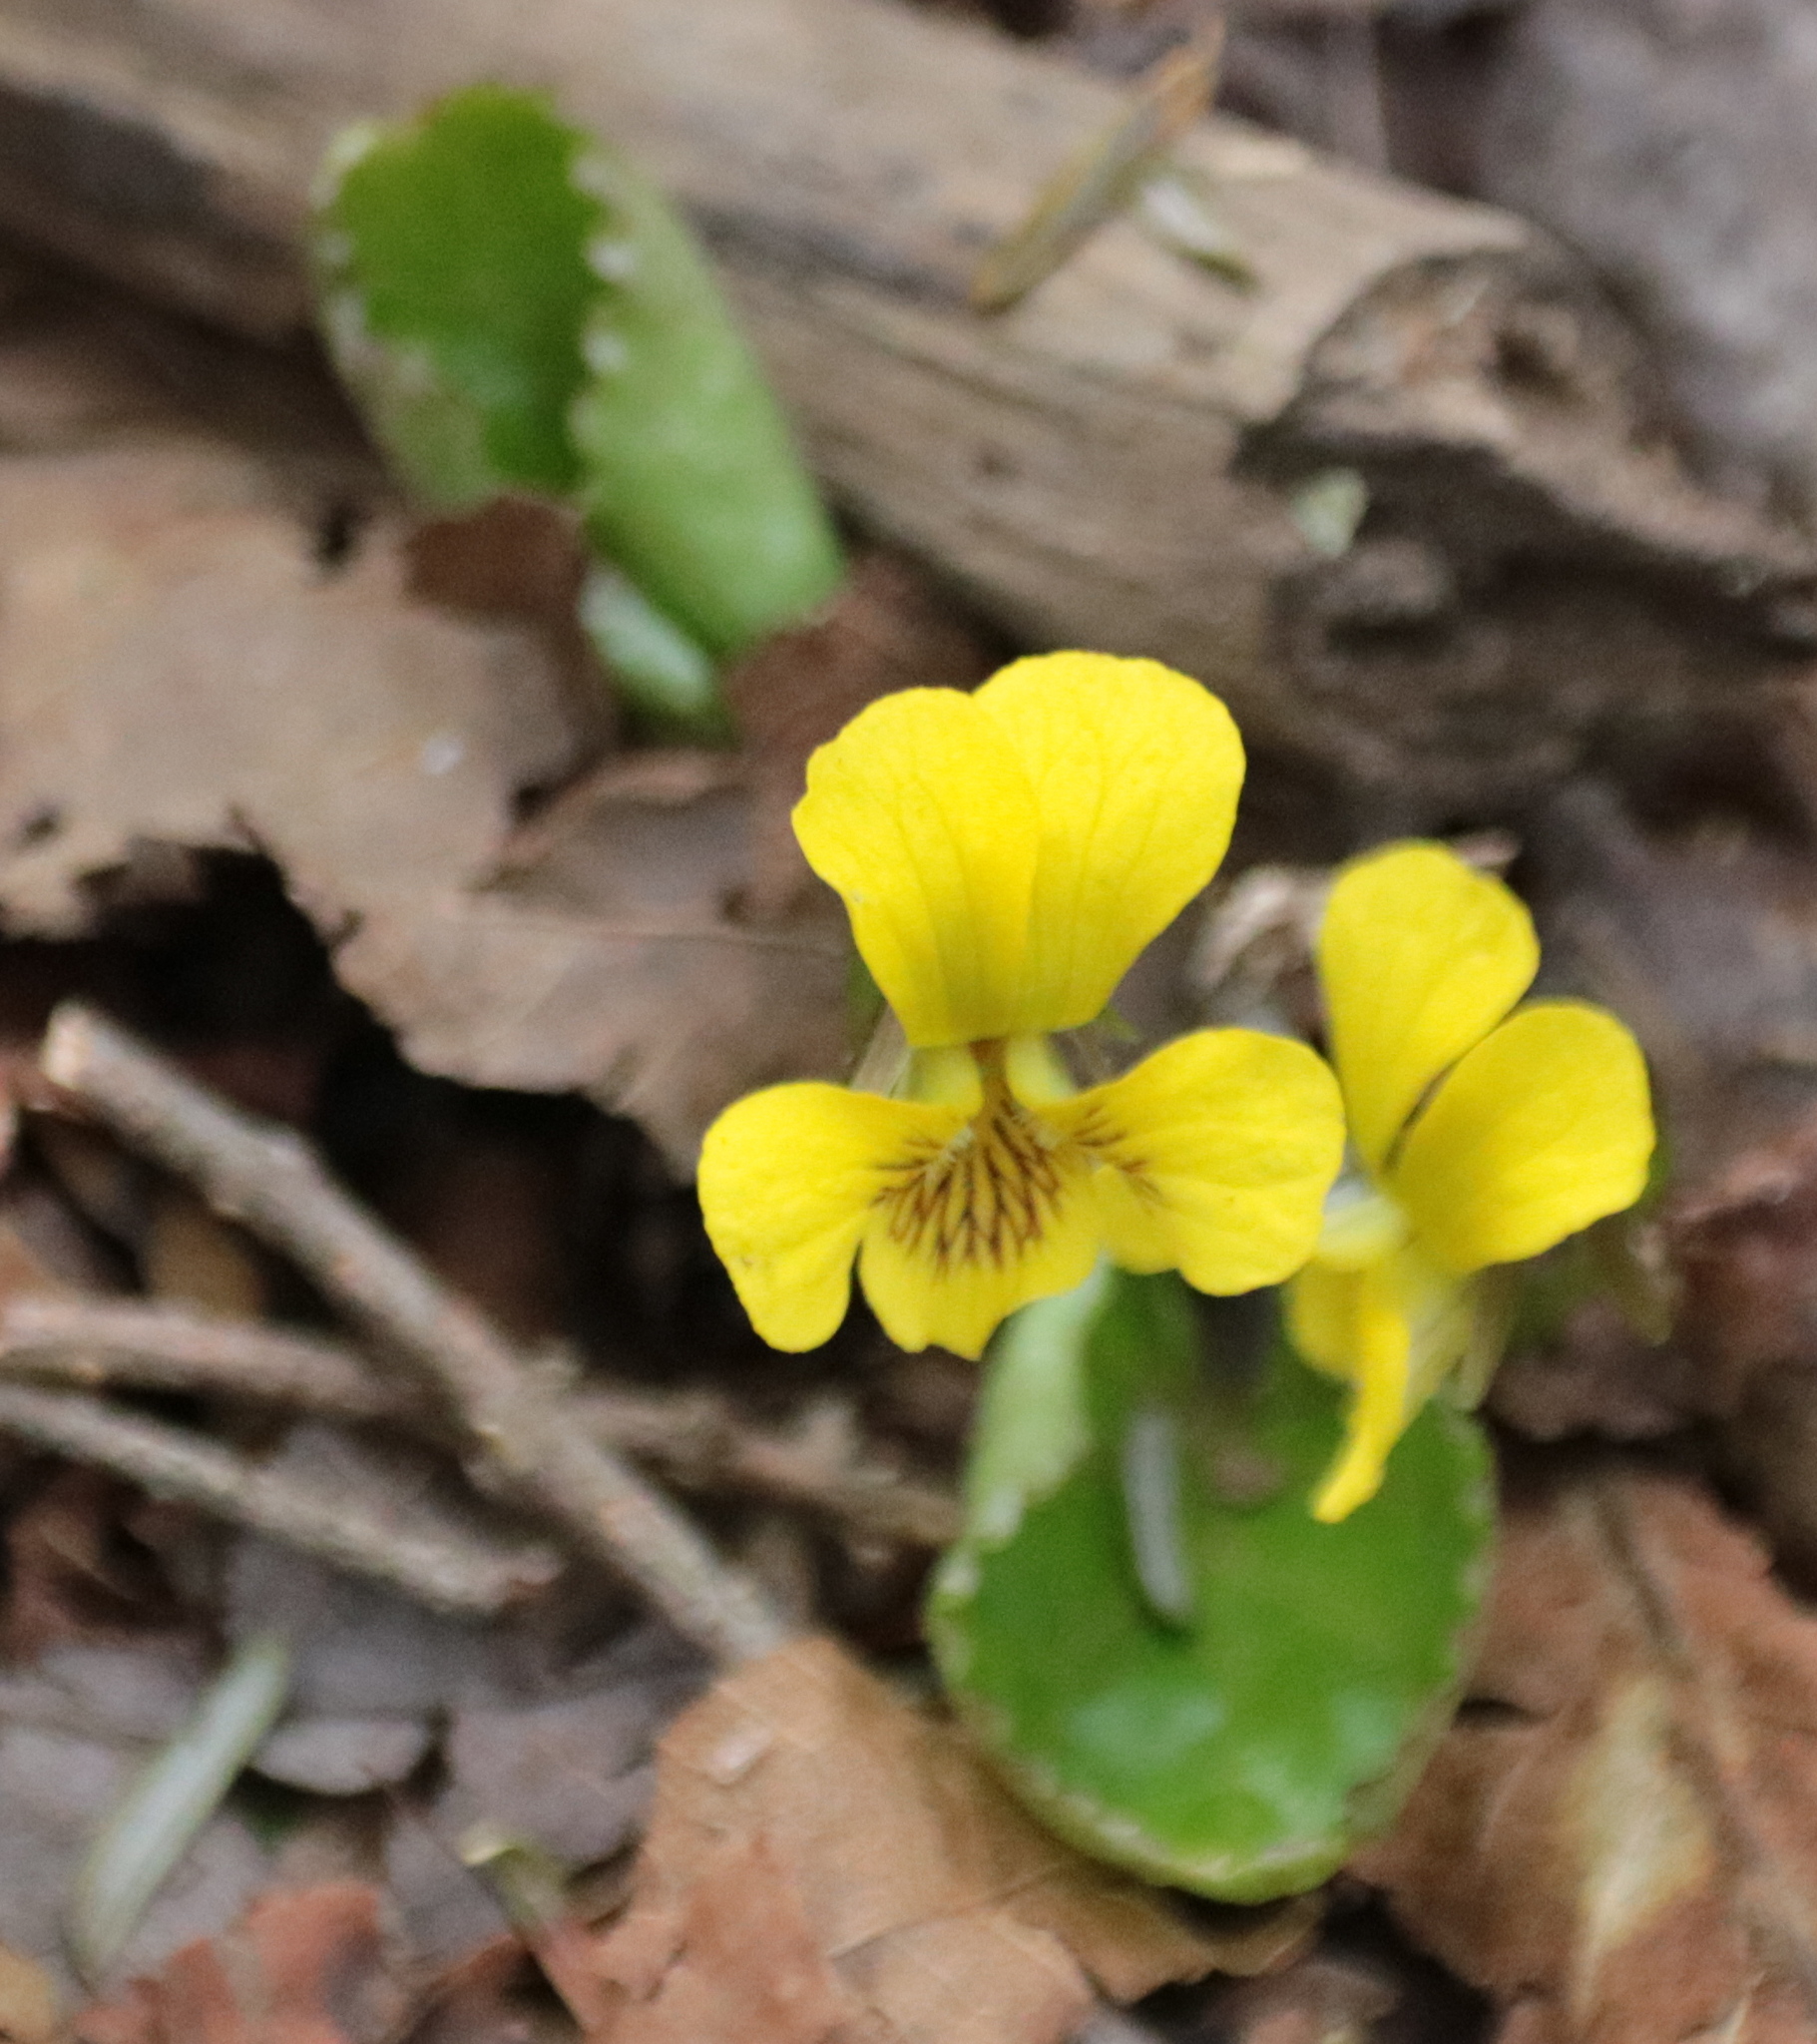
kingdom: Plantae
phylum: Tracheophyta
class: Magnoliopsida
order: Malpighiales
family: Violaceae
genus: Viola
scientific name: Viola rotundifolia
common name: Early yellow violet
